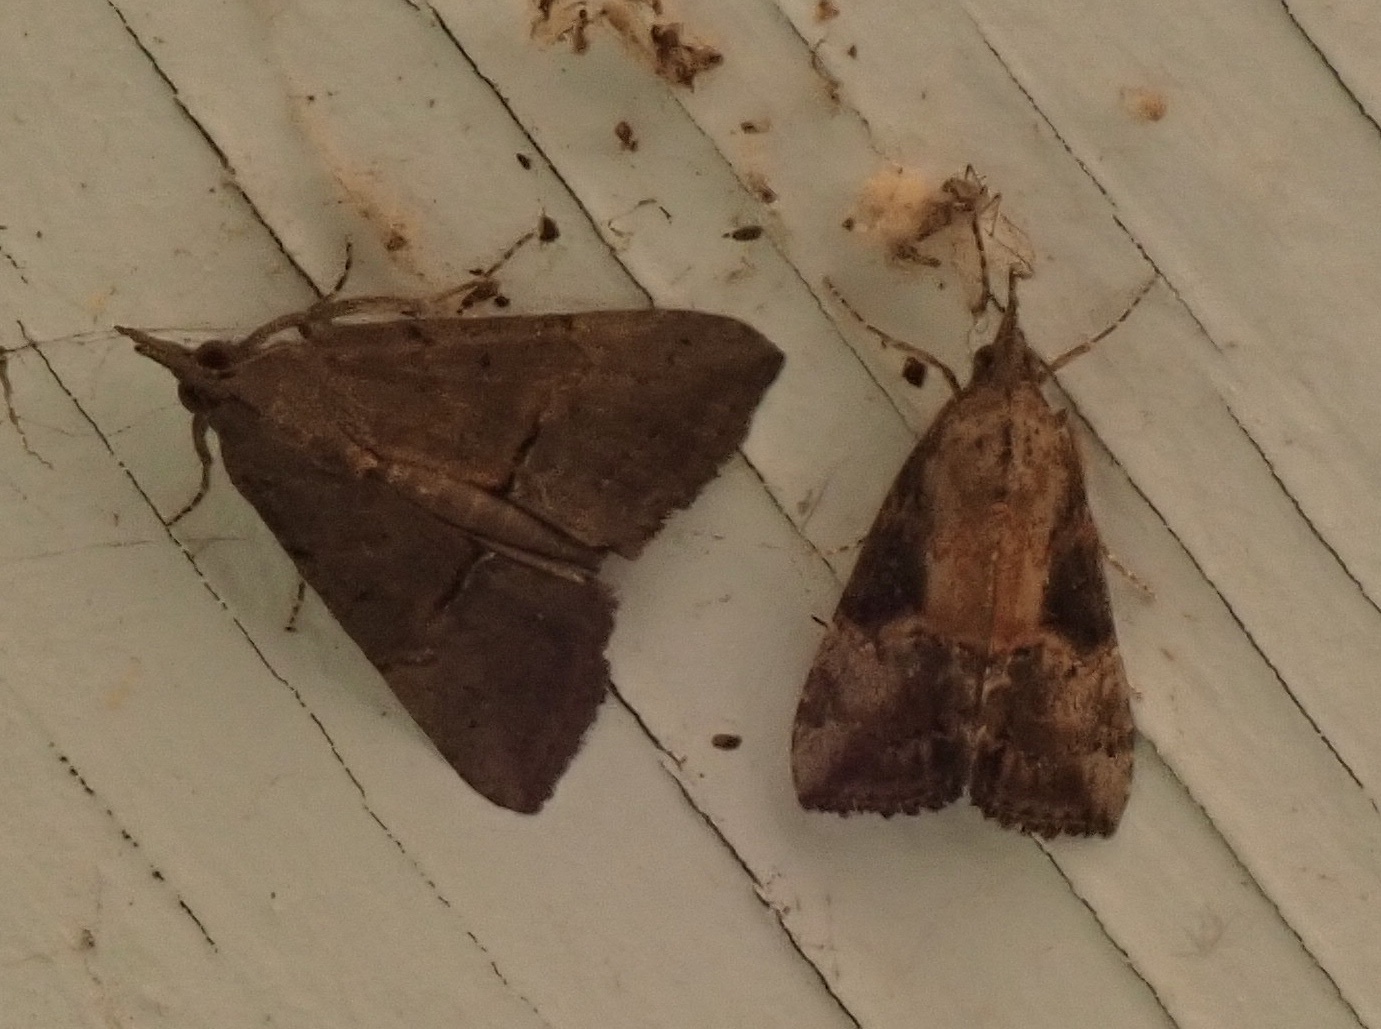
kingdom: Animalia
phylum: Arthropoda
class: Insecta
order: Lepidoptera
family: Erebidae
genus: Hypena
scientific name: Hypena scabra
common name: Green cloverworm
